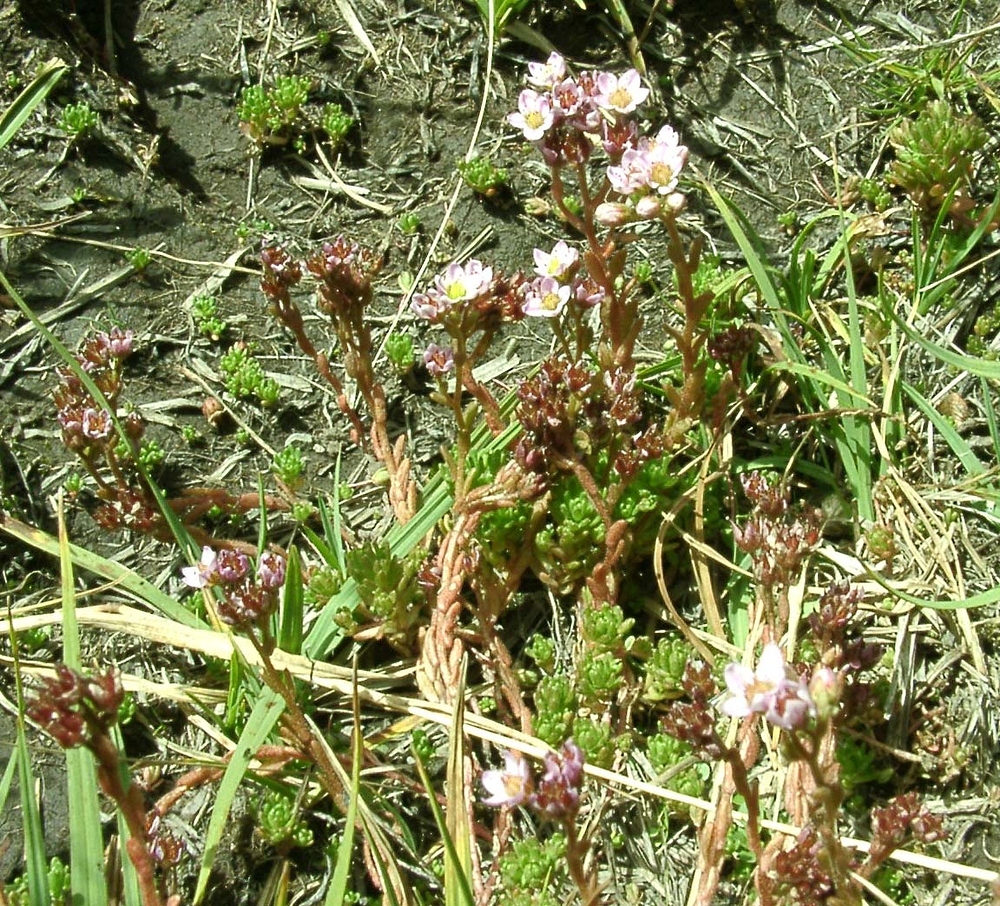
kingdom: Plantae
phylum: Tracheophyta
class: Magnoliopsida
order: Saxifragales
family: Crassulaceae
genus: Sedum
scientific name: Sedum villosum
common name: Hairy stonecrop
